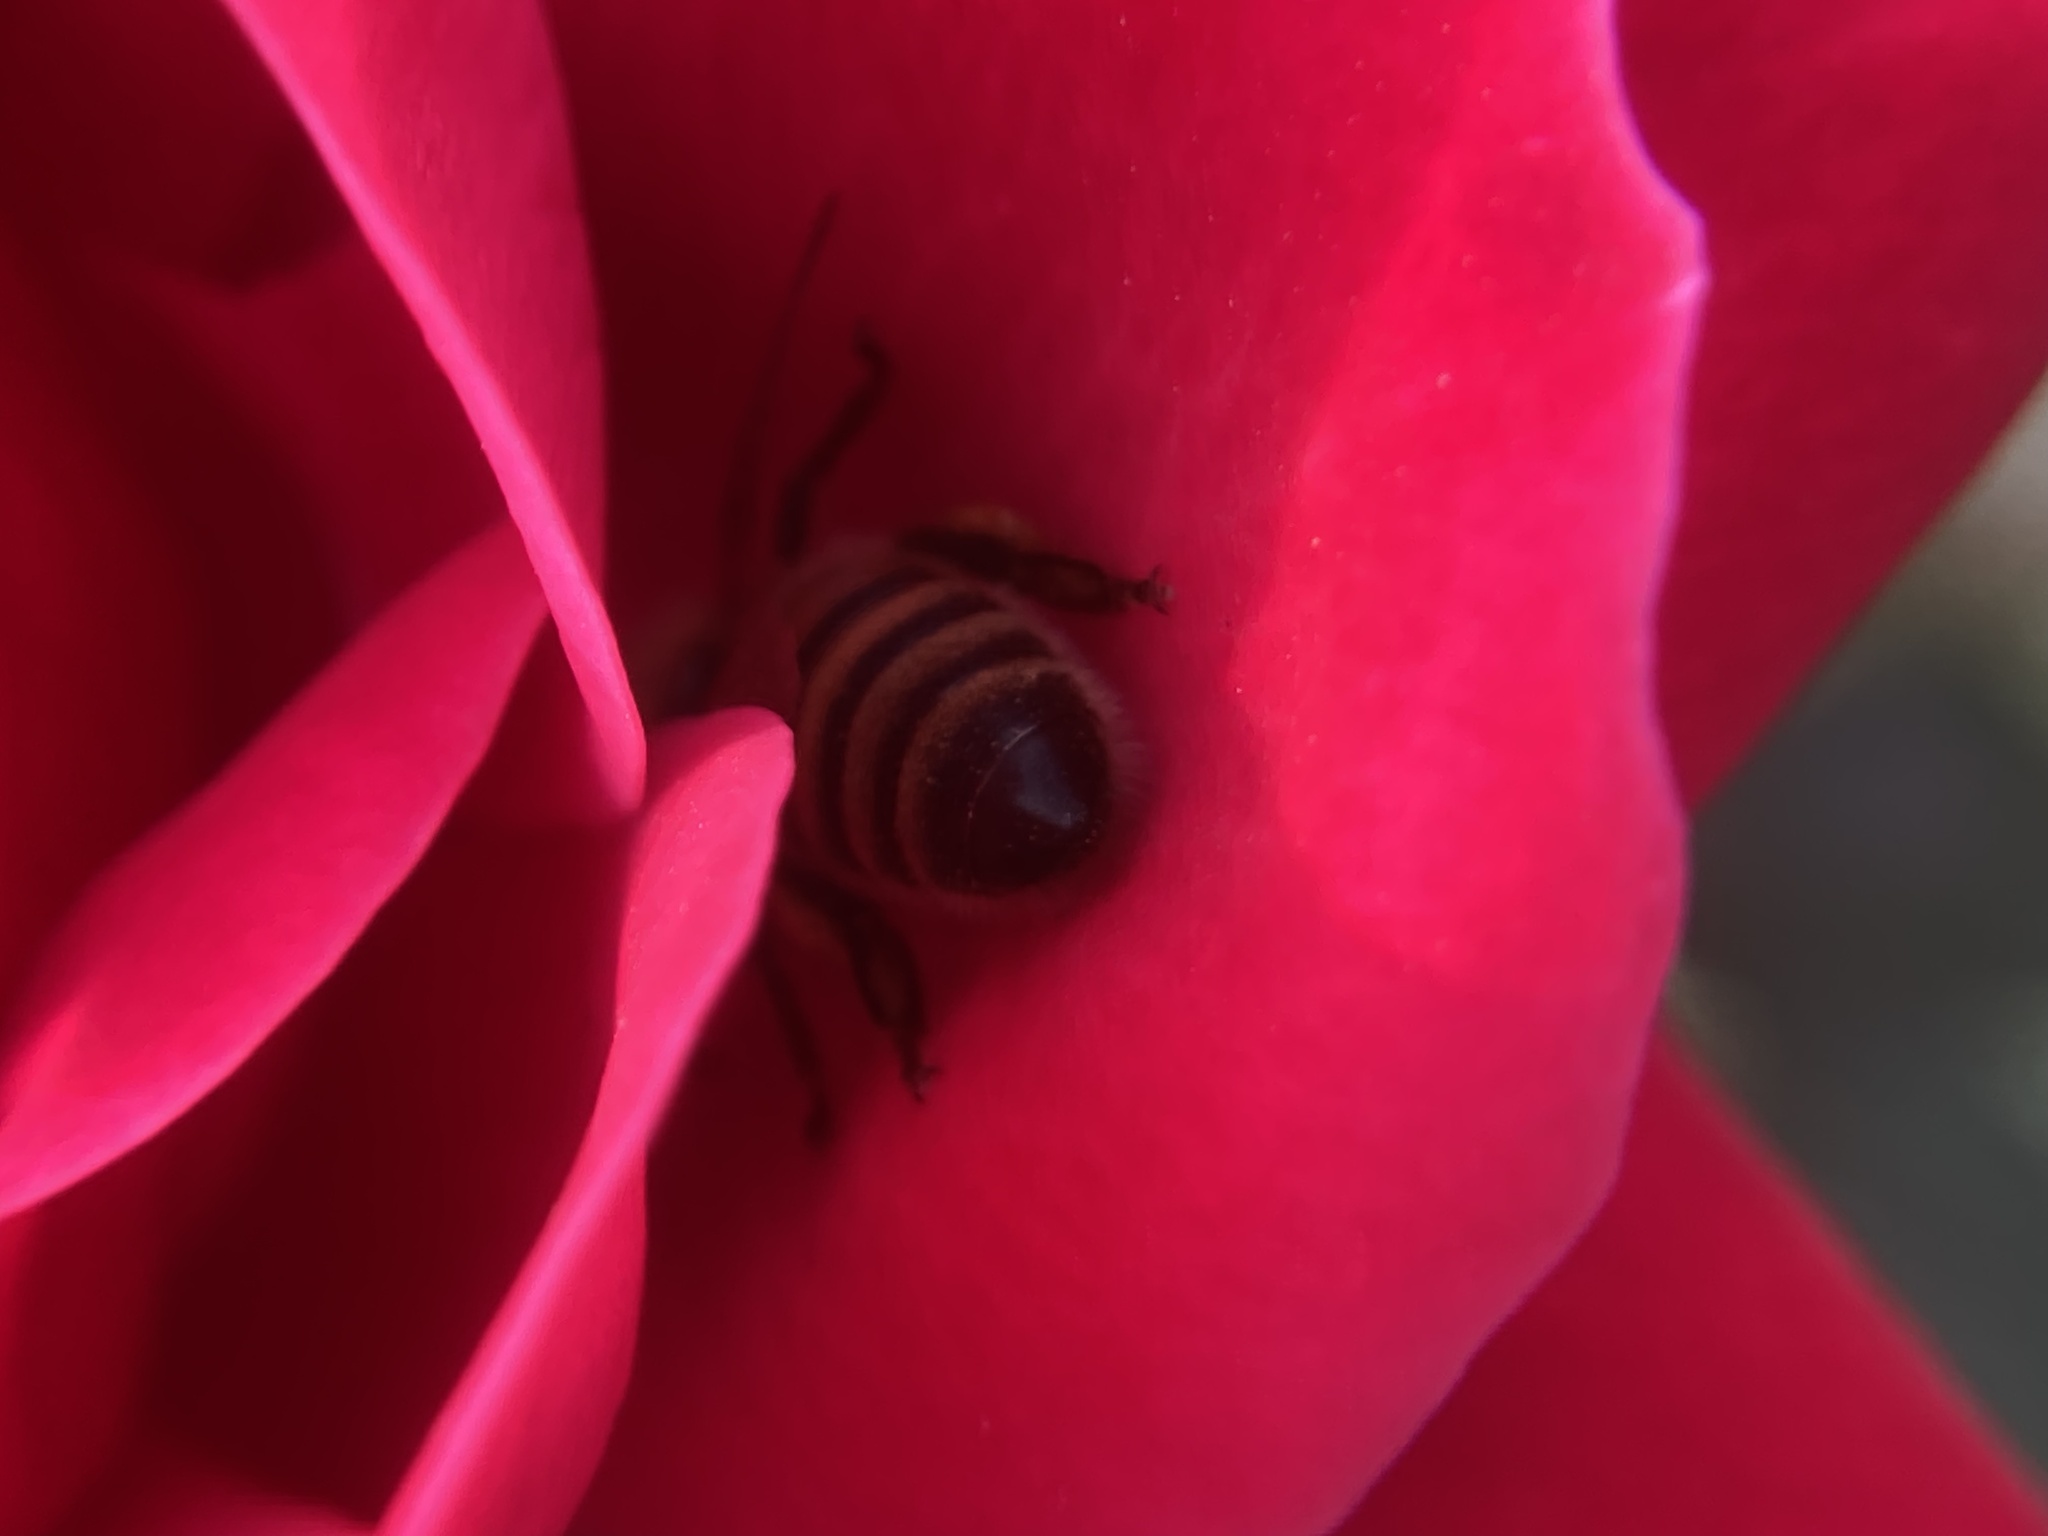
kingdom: Animalia
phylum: Arthropoda
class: Insecta
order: Hymenoptera
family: Apidae
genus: Apis
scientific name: Apis mellifera
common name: Honey bee
